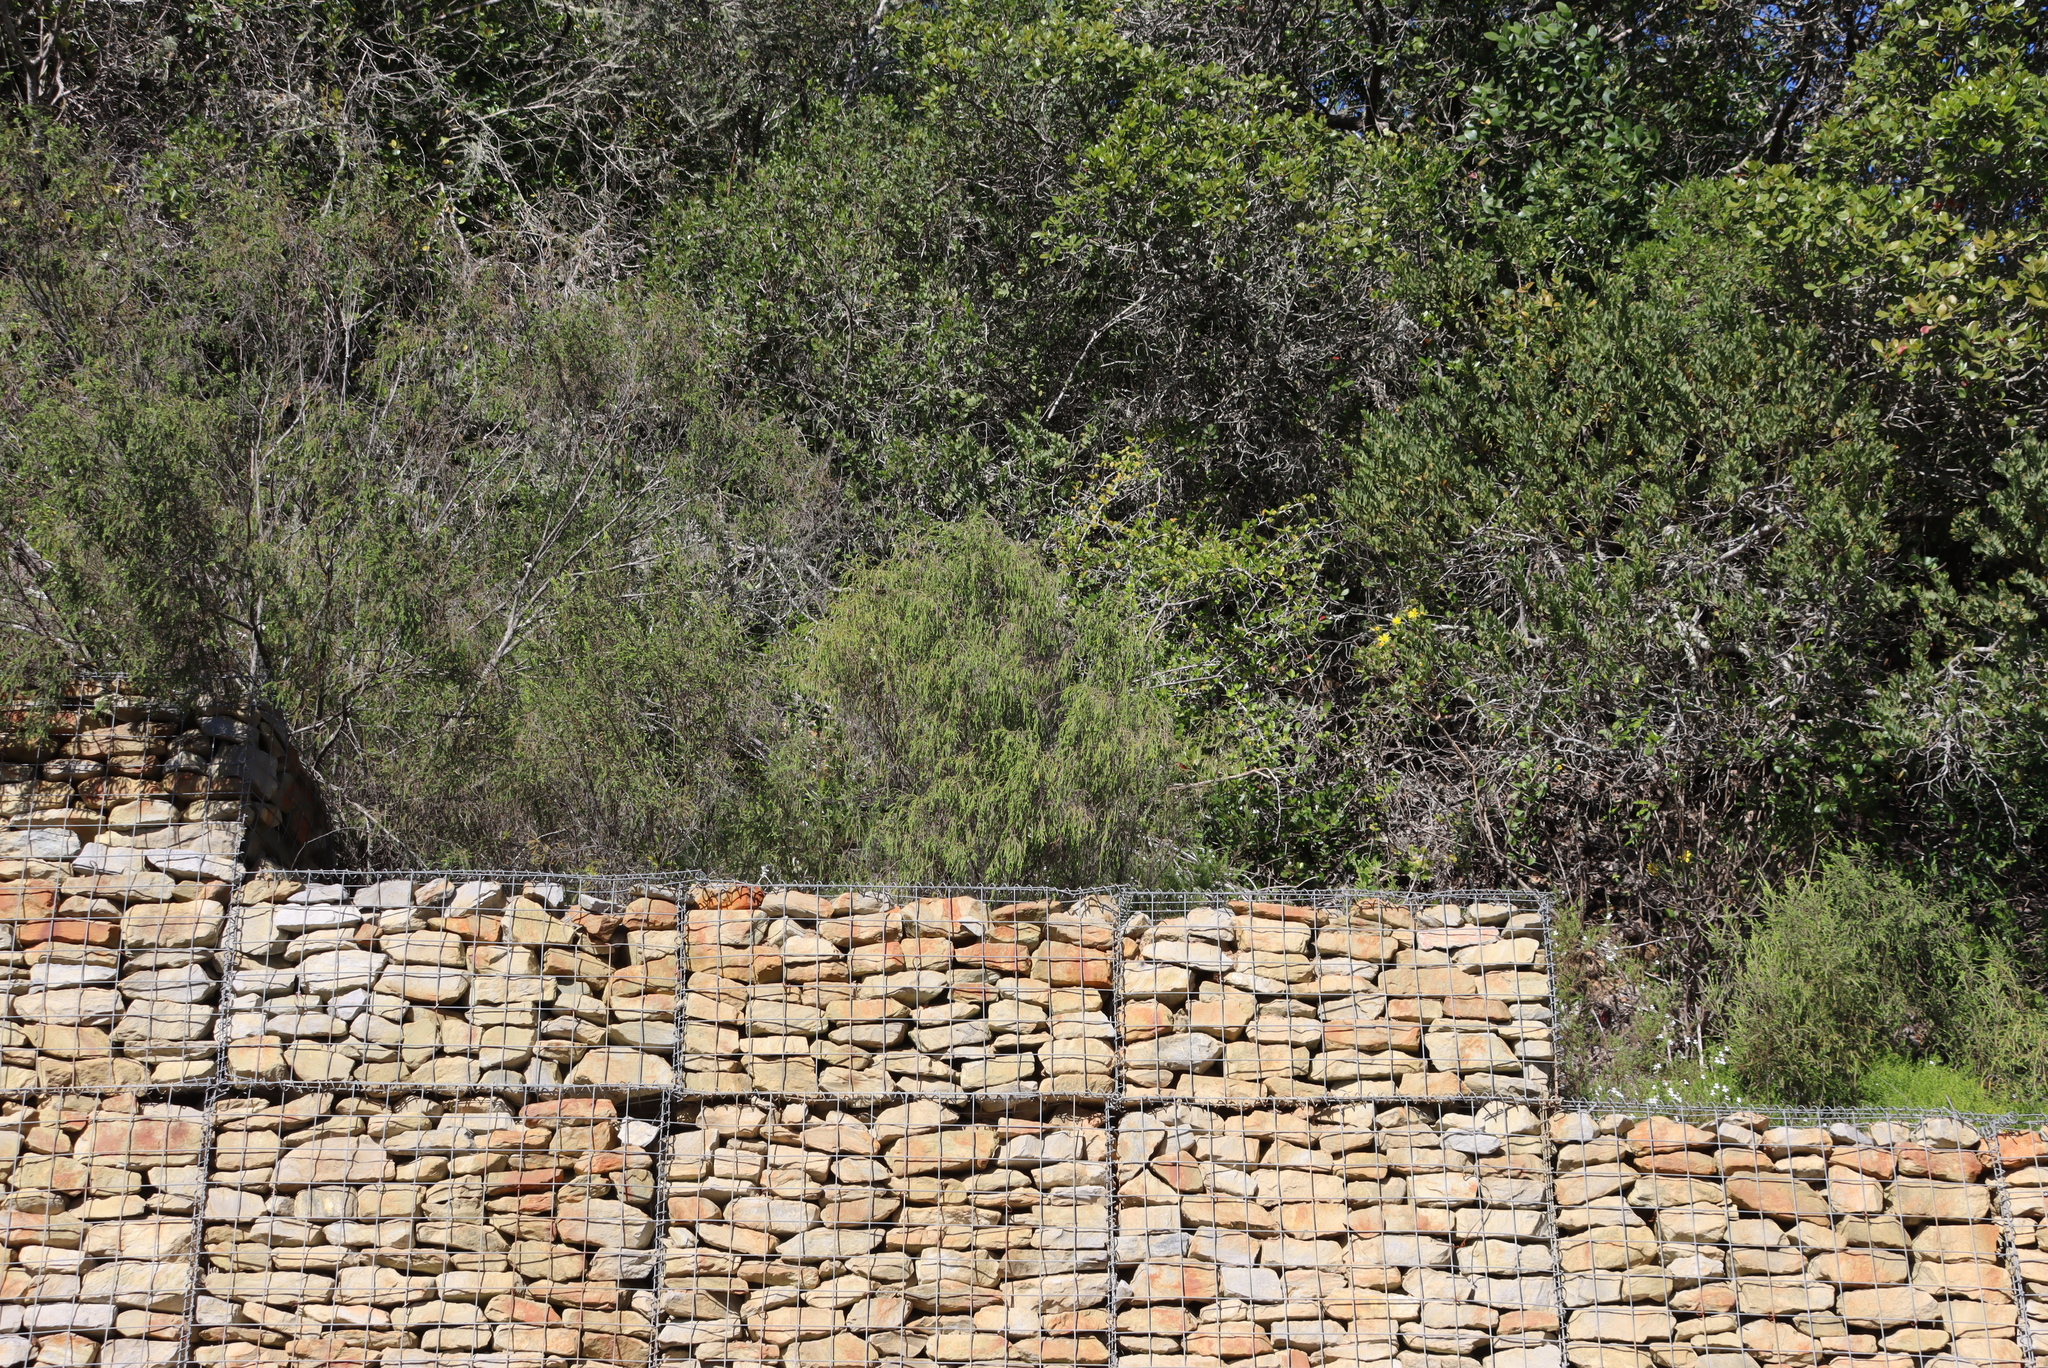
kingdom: Plantae
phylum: Tracheophyta
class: Magnoliopsida
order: Malvales
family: Thymelaeaceae
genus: Passerina
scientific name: Passerina falcifolia
